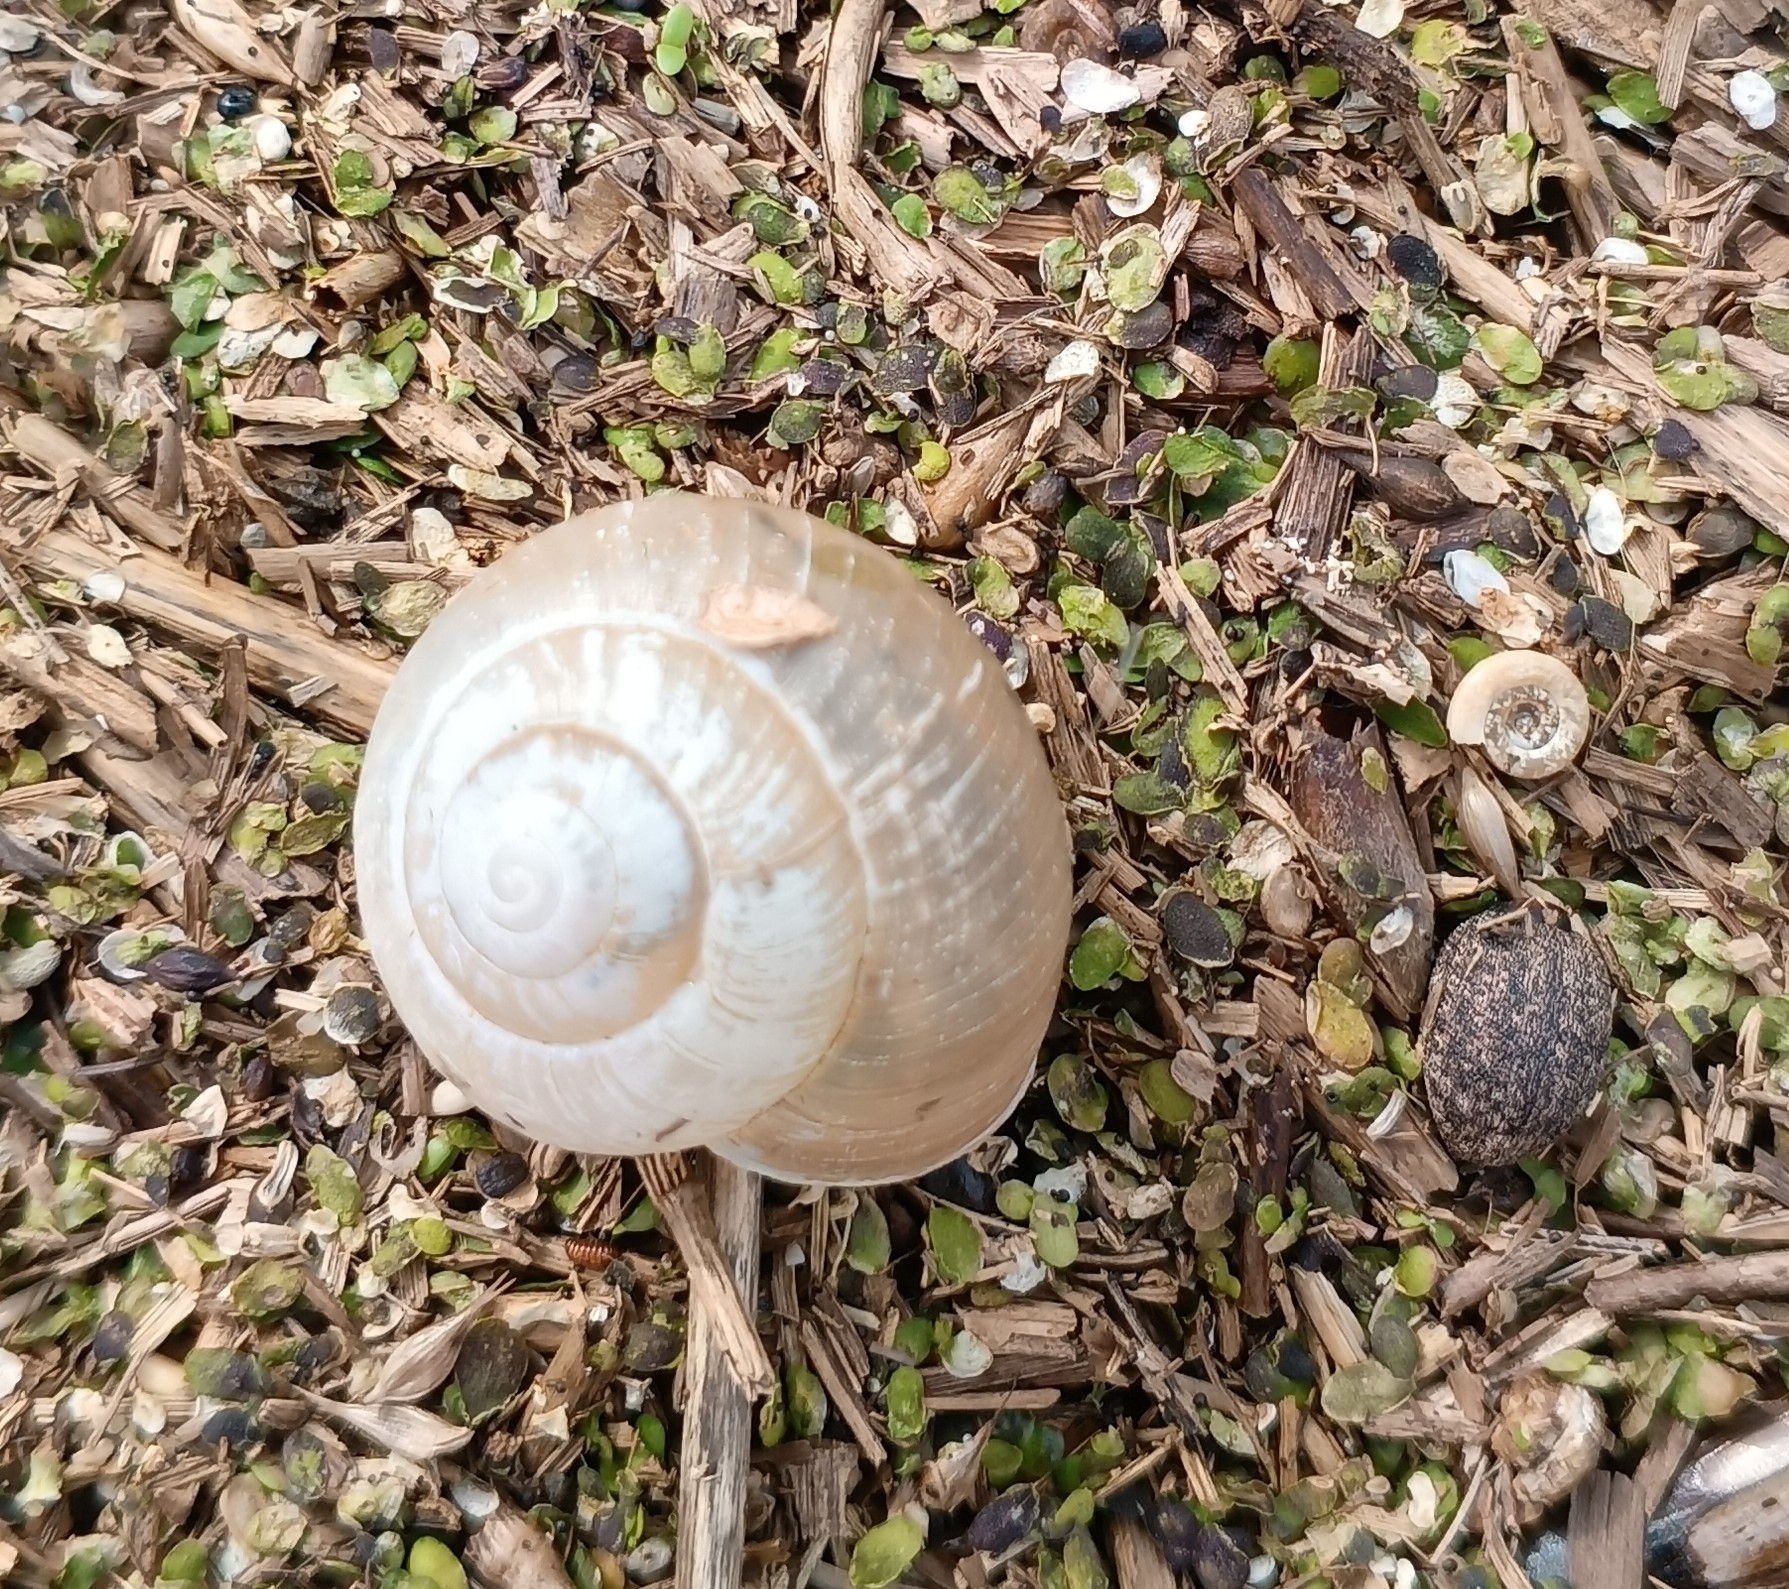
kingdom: Animalia
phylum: Mollusca
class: Gastropoda
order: Stylommatophora
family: Camaenidae
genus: Fruticicola
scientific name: Fruticicola fruticum
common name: Bush snail
